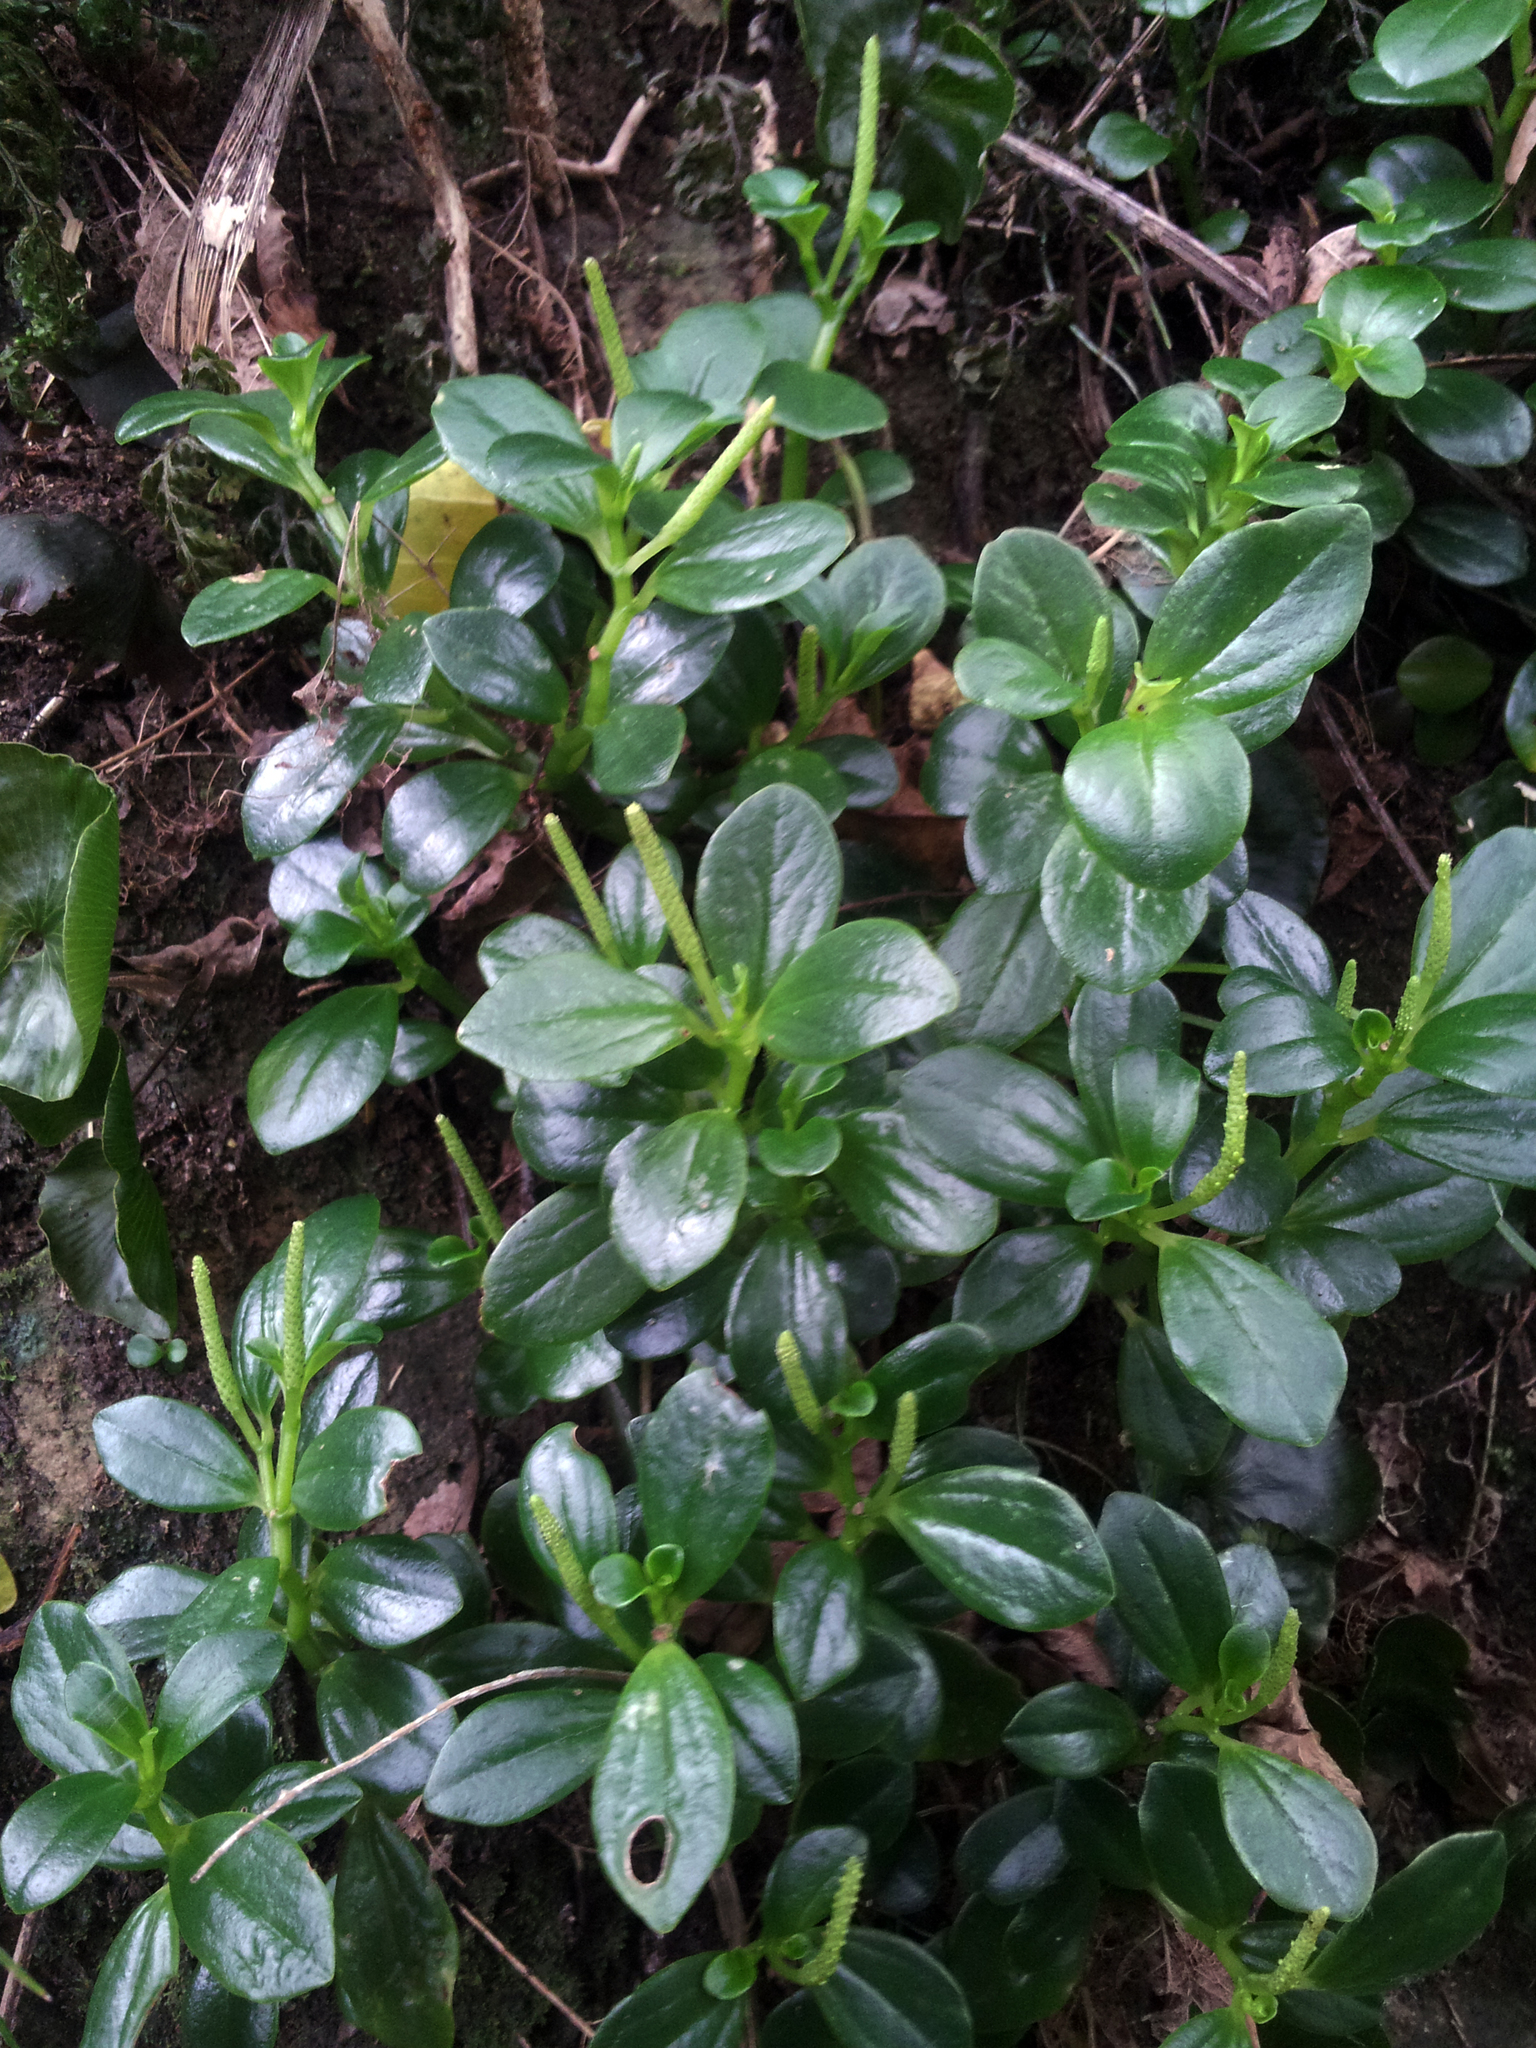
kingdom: Plantae
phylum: Tracheophyta
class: Magnoliopsida
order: Piperales
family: Piperaceae
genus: Peperomia
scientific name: Peperomia urvilleana
